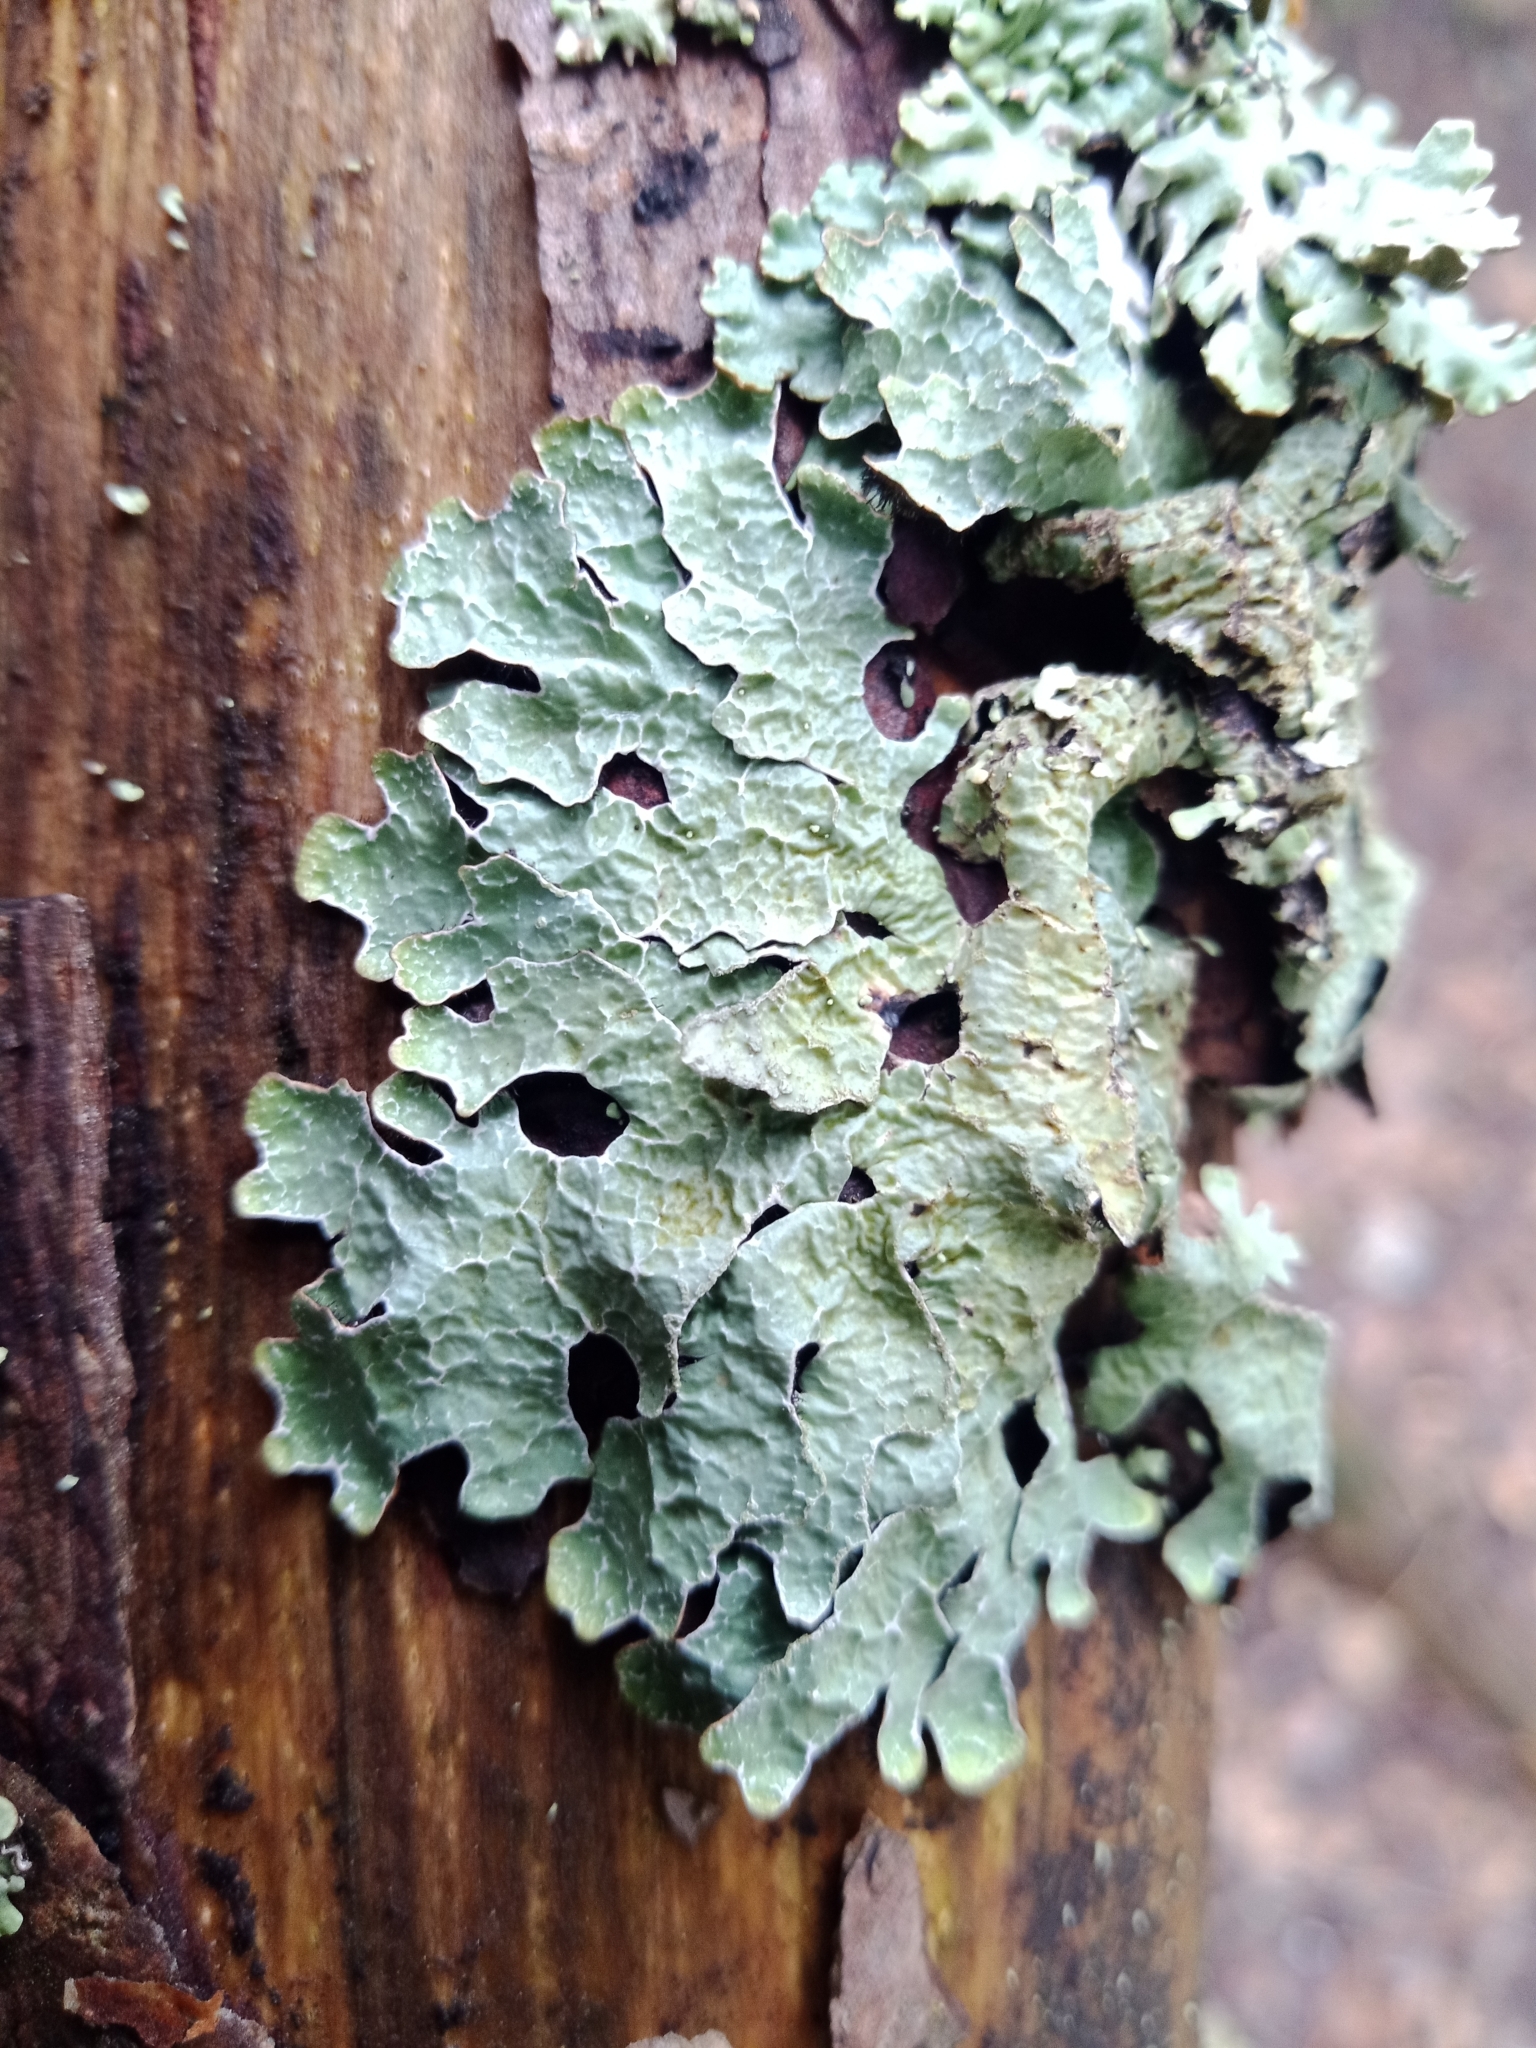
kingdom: Fungi
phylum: Ascomycota
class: Lecanoromycetes
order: Lecanorales
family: Parmeliaceae
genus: Parmelia
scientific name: Parmelia sulcata
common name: Netted shield lichen
